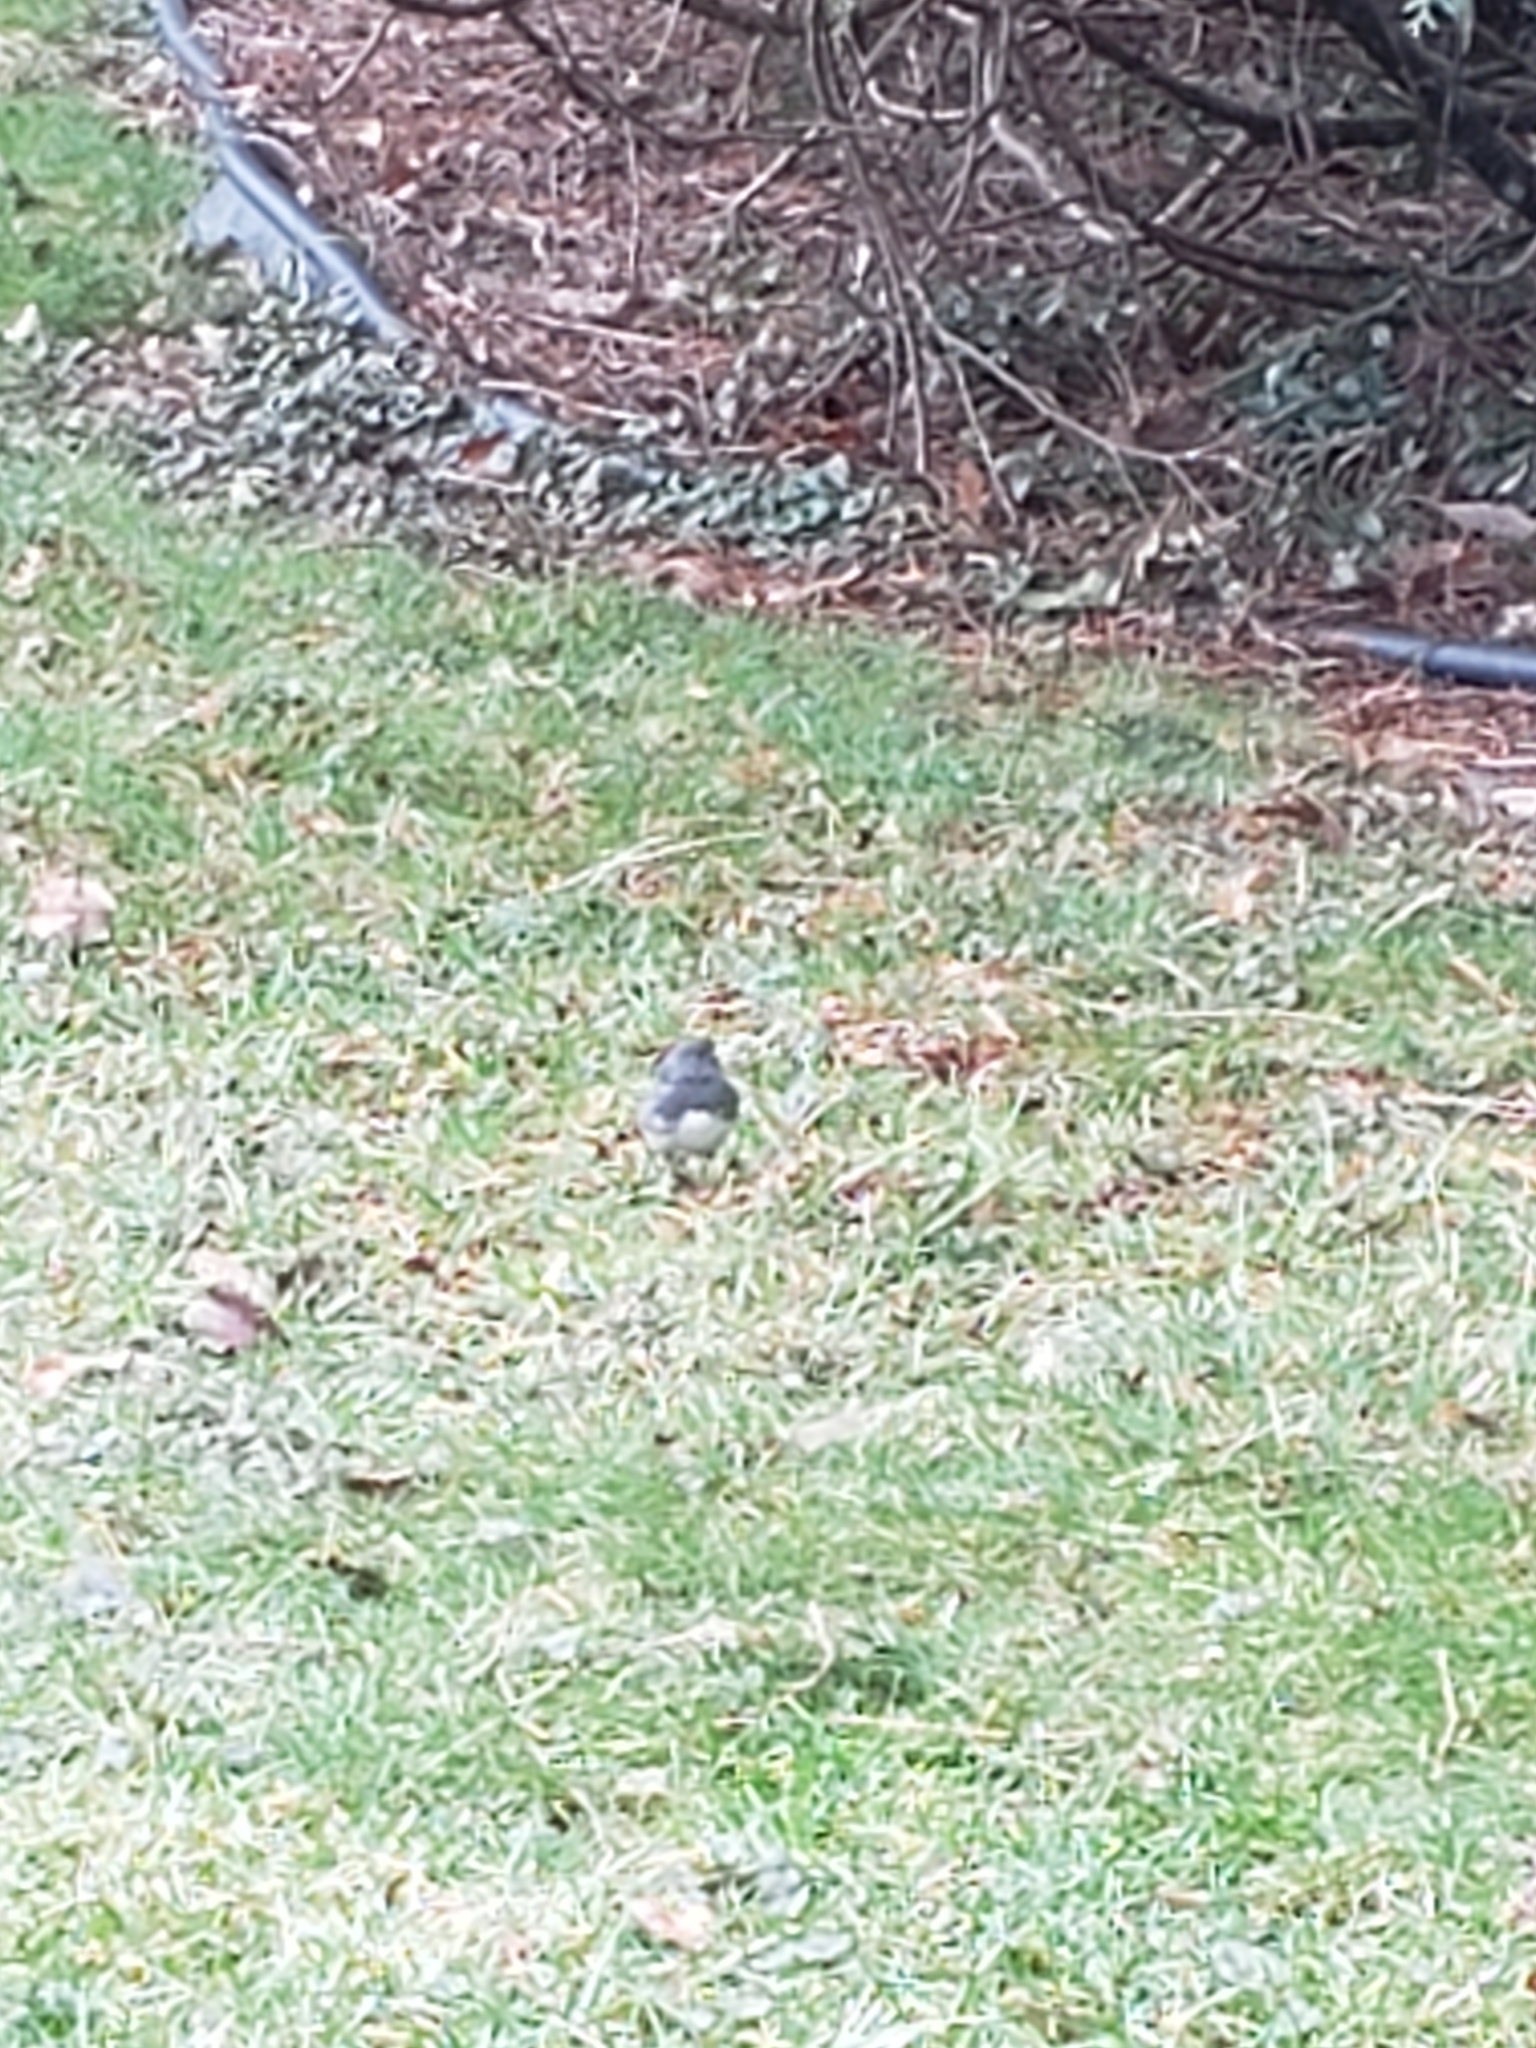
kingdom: Animalia
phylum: Chordata
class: Aves
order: Passeriformes
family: Passerellidae
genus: Junco
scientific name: Junco hyemalis
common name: Dark-eyed junco
